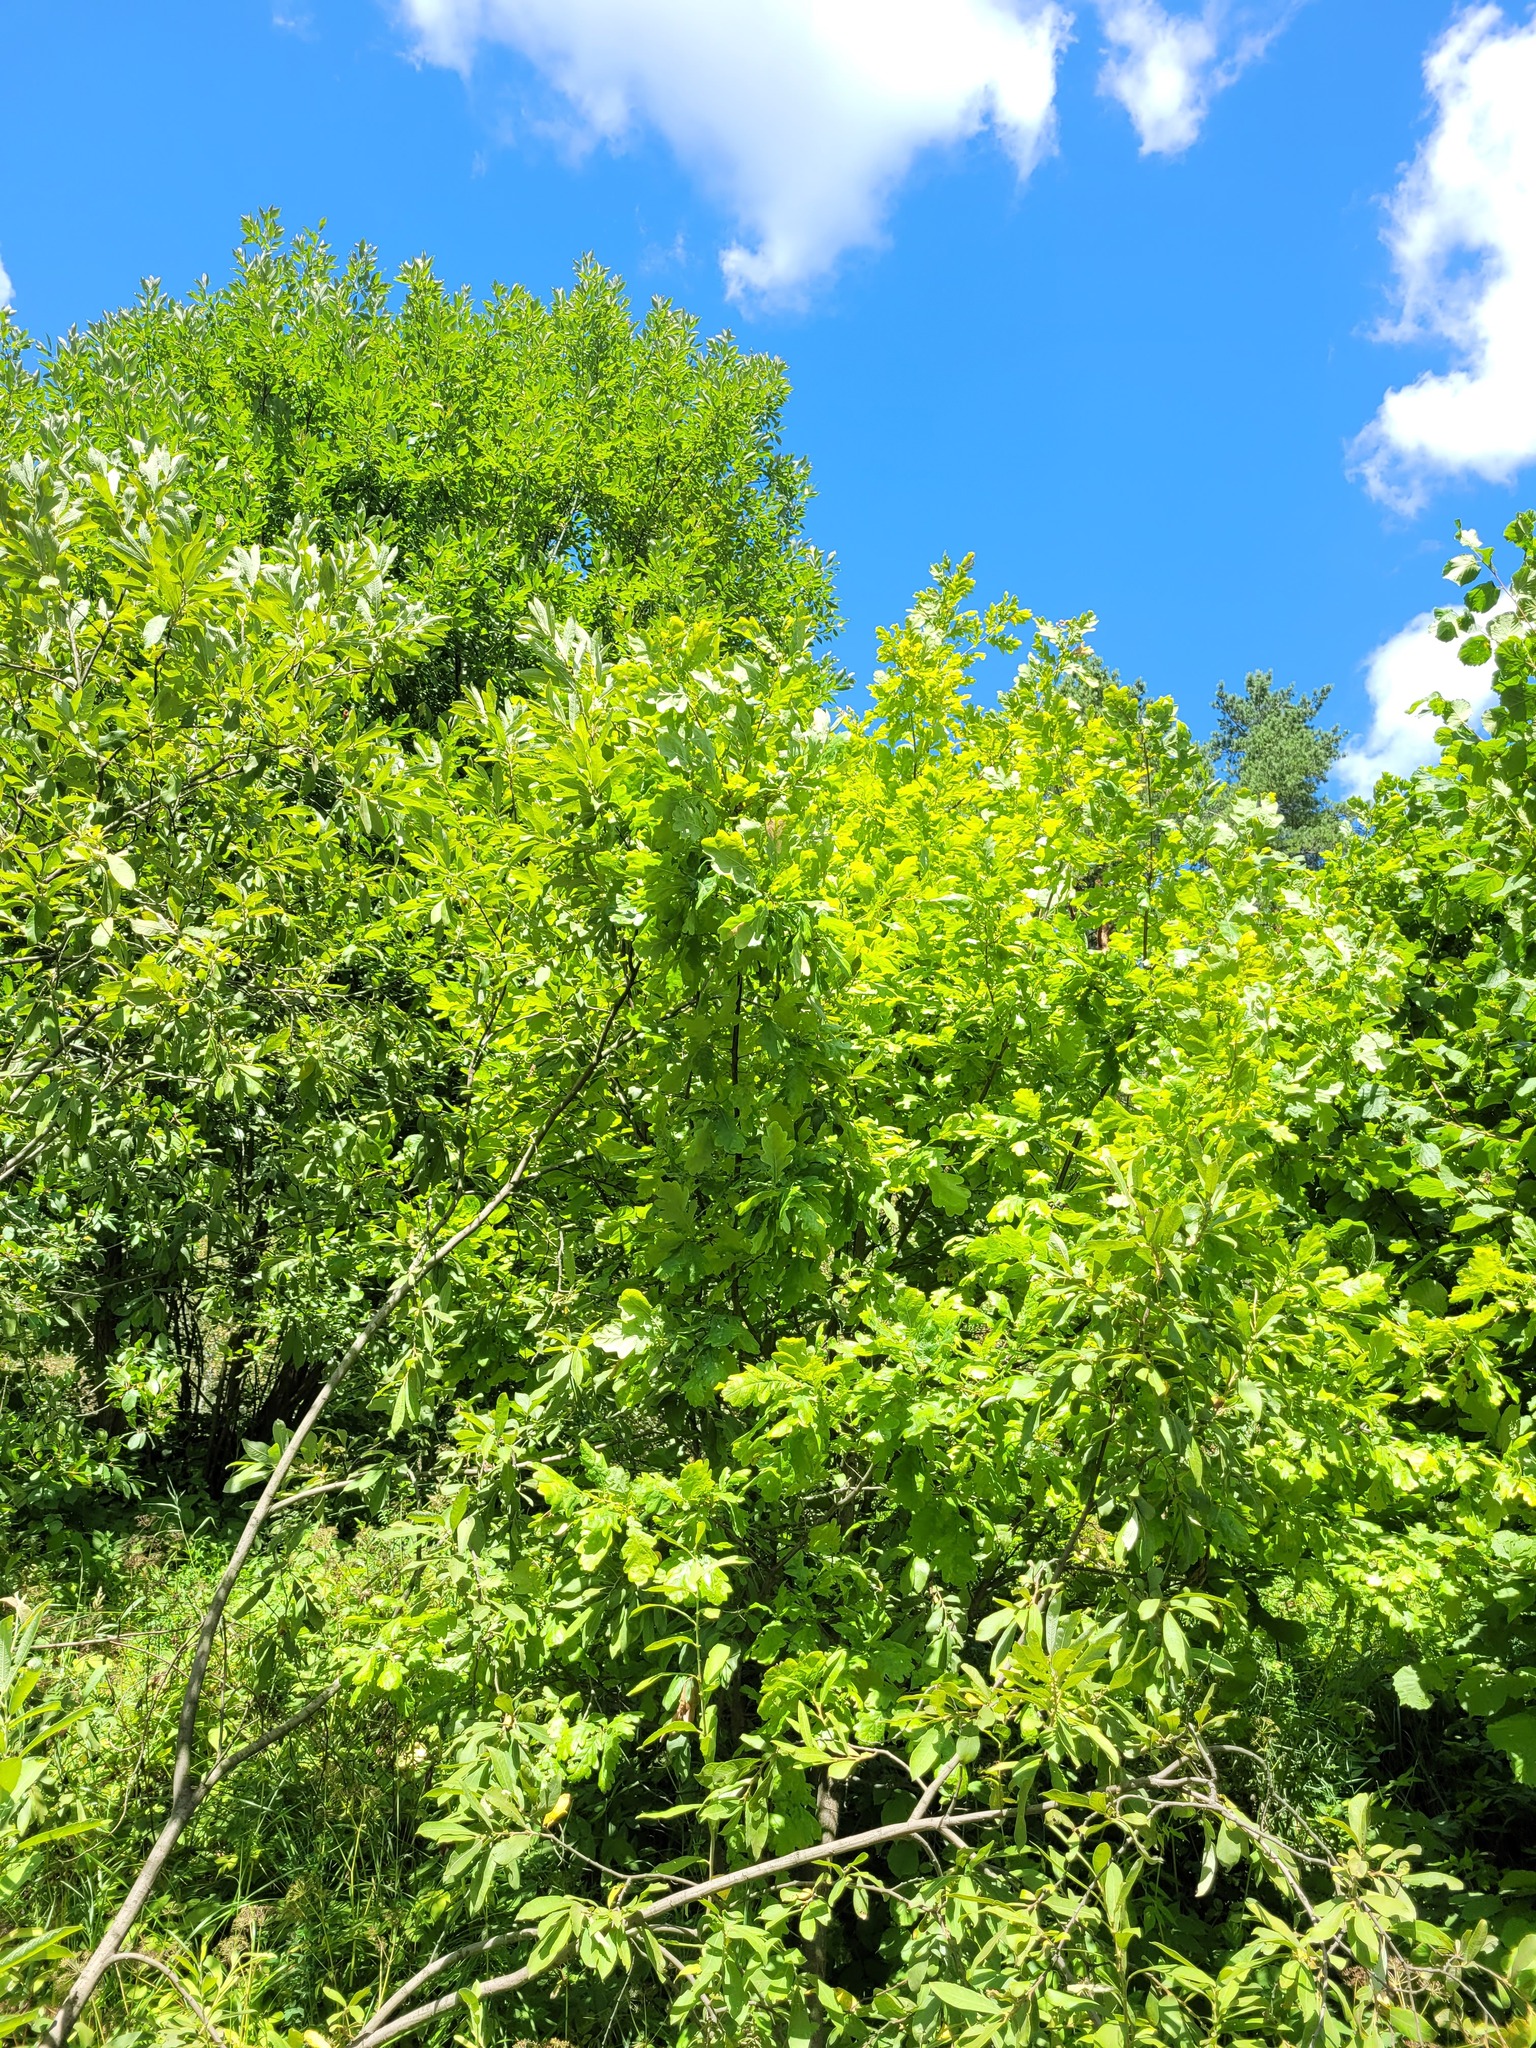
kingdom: Plantae
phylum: Tracheophyta
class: Magnoliopsida
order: Fagales
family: Fagaceae
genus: Quercus
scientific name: Quercus robur
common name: Pedunculate oak
